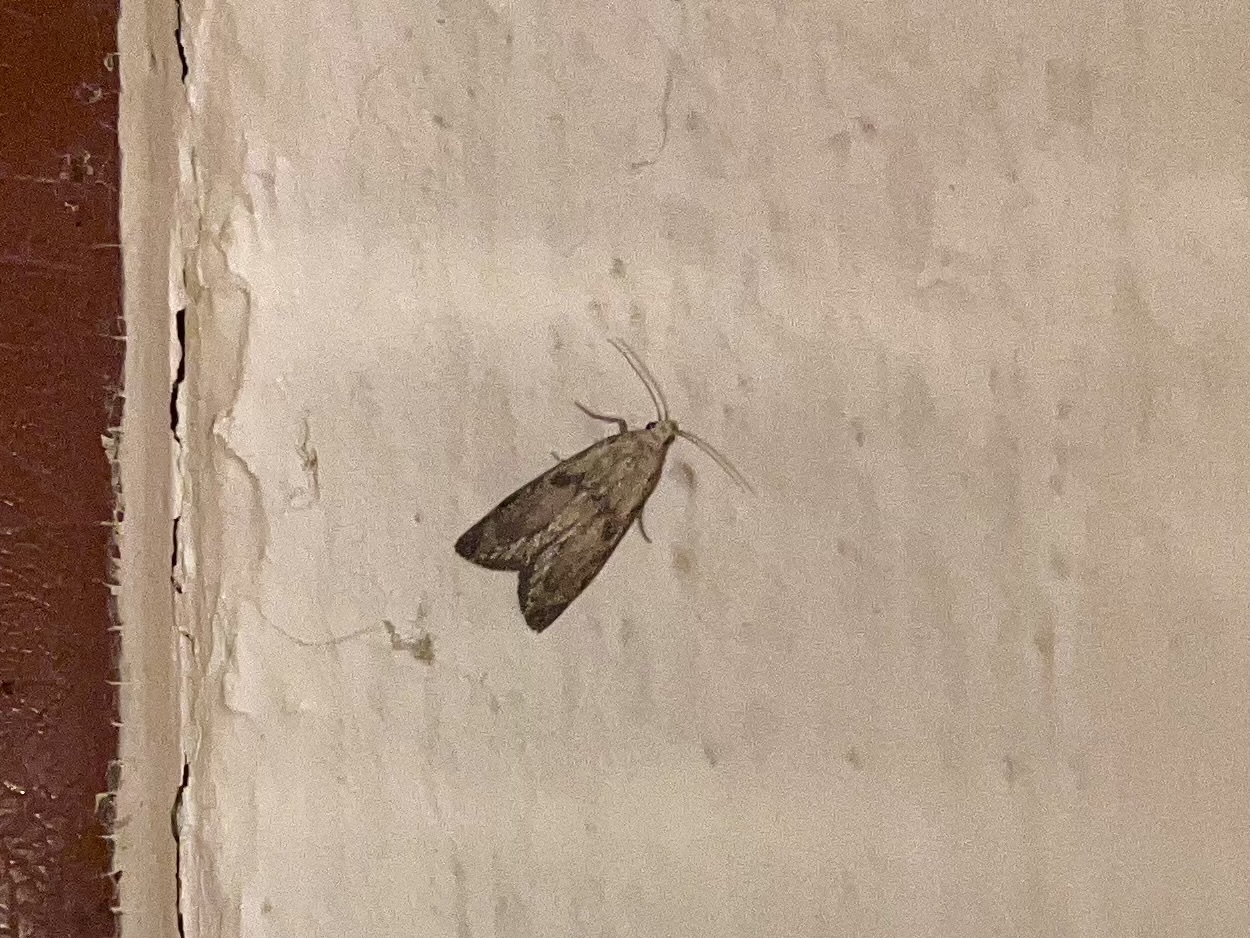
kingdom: Animalia
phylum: Arthropoda
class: Insecta
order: Lepidoptera
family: Pyralidae
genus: Aphomia
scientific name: Aphomia sociella
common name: Bee moth
